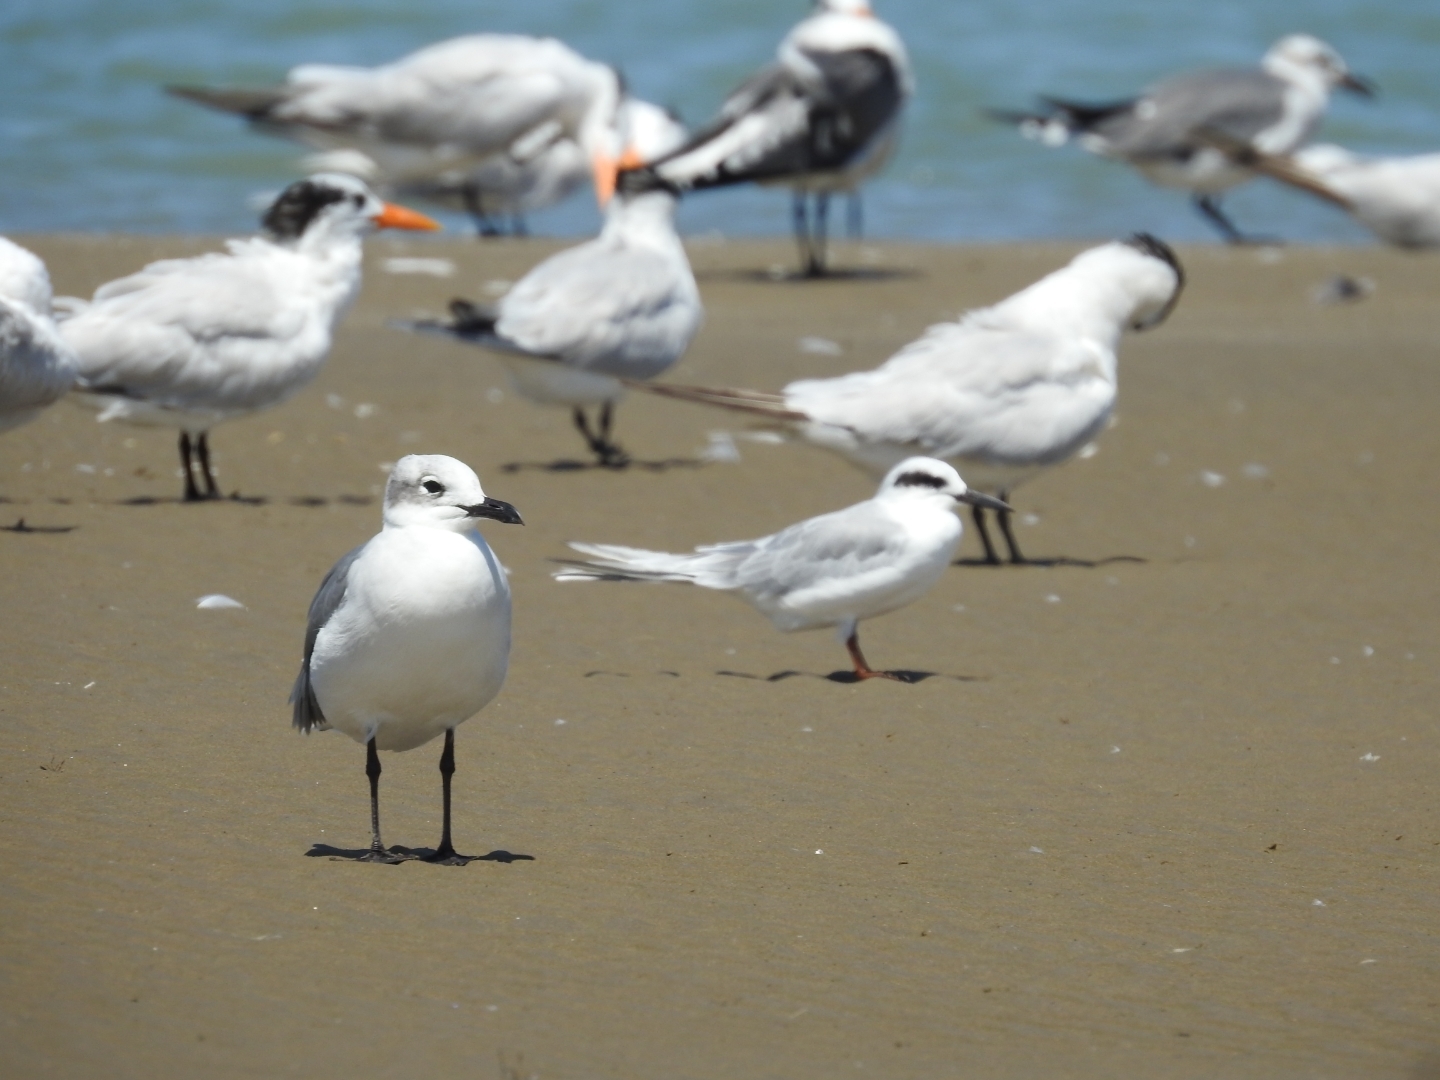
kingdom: Animalia
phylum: Chordata
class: Aves
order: Charadriiformes
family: Laridae
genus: Leucophaeus
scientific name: Leucophaeus atricilla
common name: Laughing gull
